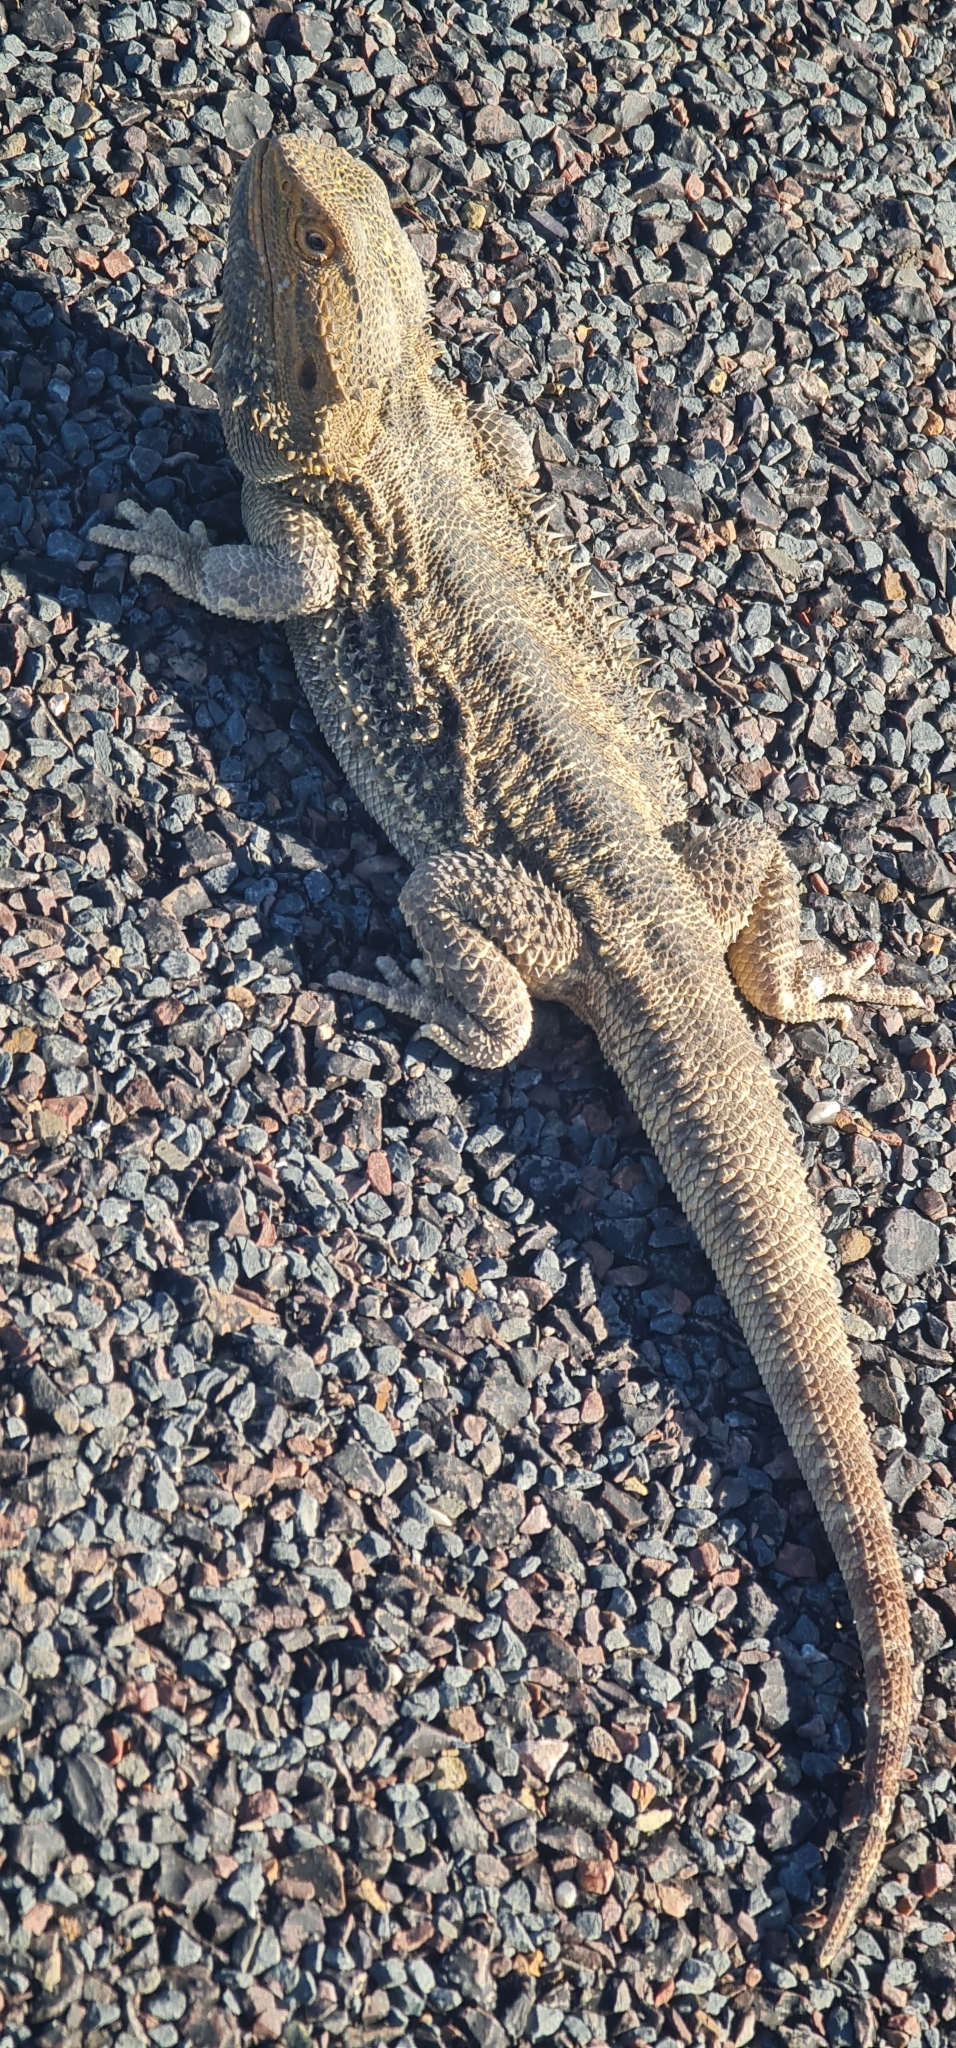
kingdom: Animalia
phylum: Chordata
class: Squamata
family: Agamidae
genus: Pogona
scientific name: Pogona vitticeps
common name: Central bearded dragon
